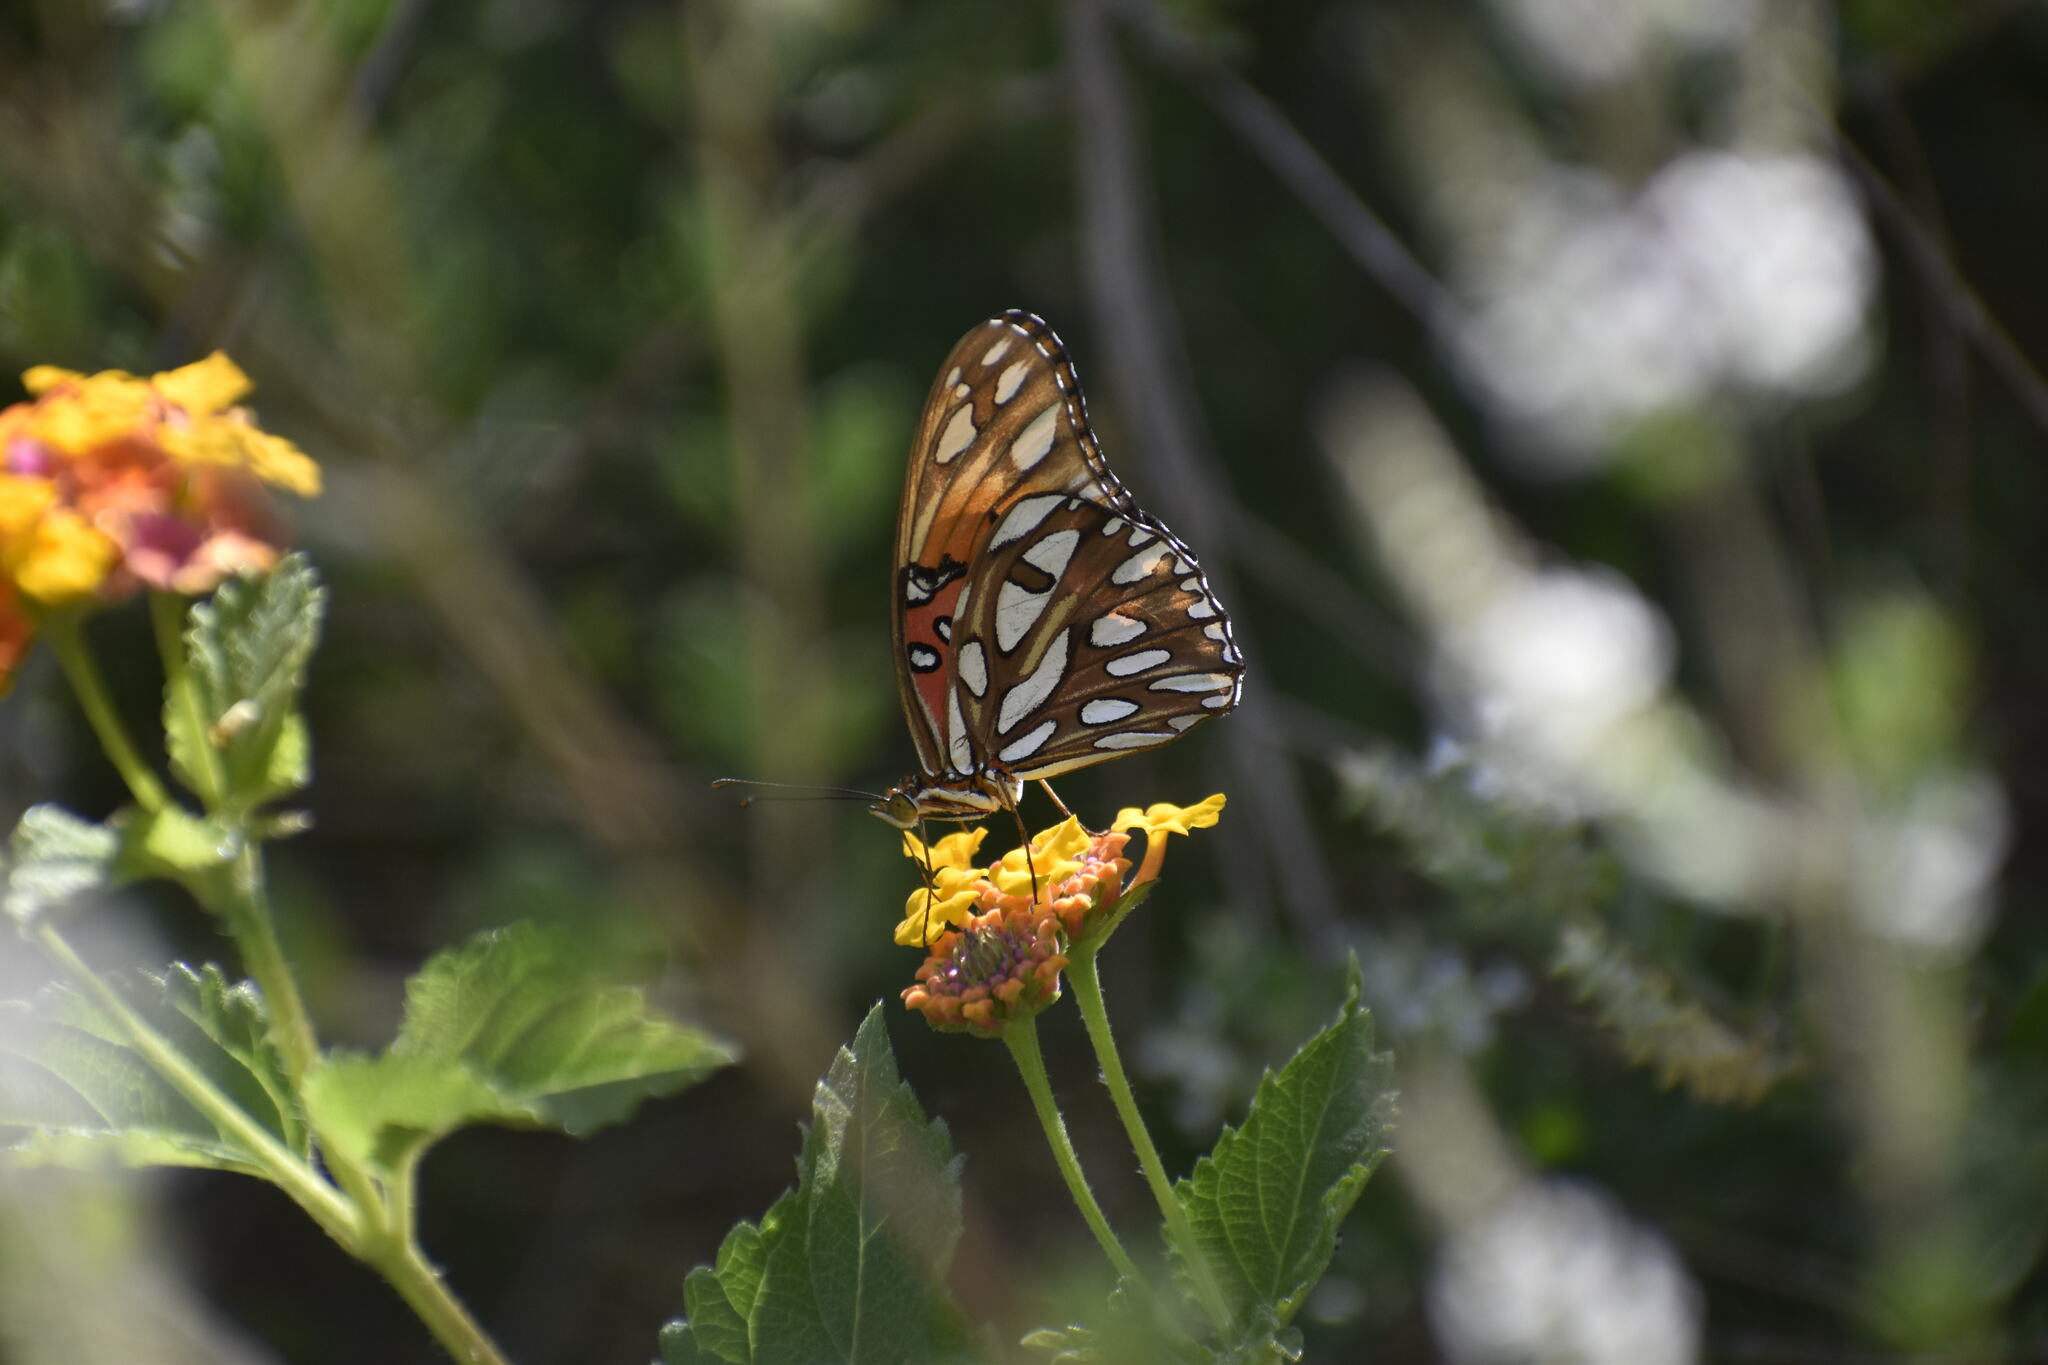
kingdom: Animalia
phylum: Arthropoda
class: Insecta
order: Lepidoptera
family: Nymphalidae
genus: Dione
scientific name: Dione vanillae
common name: Gulf fritillary
